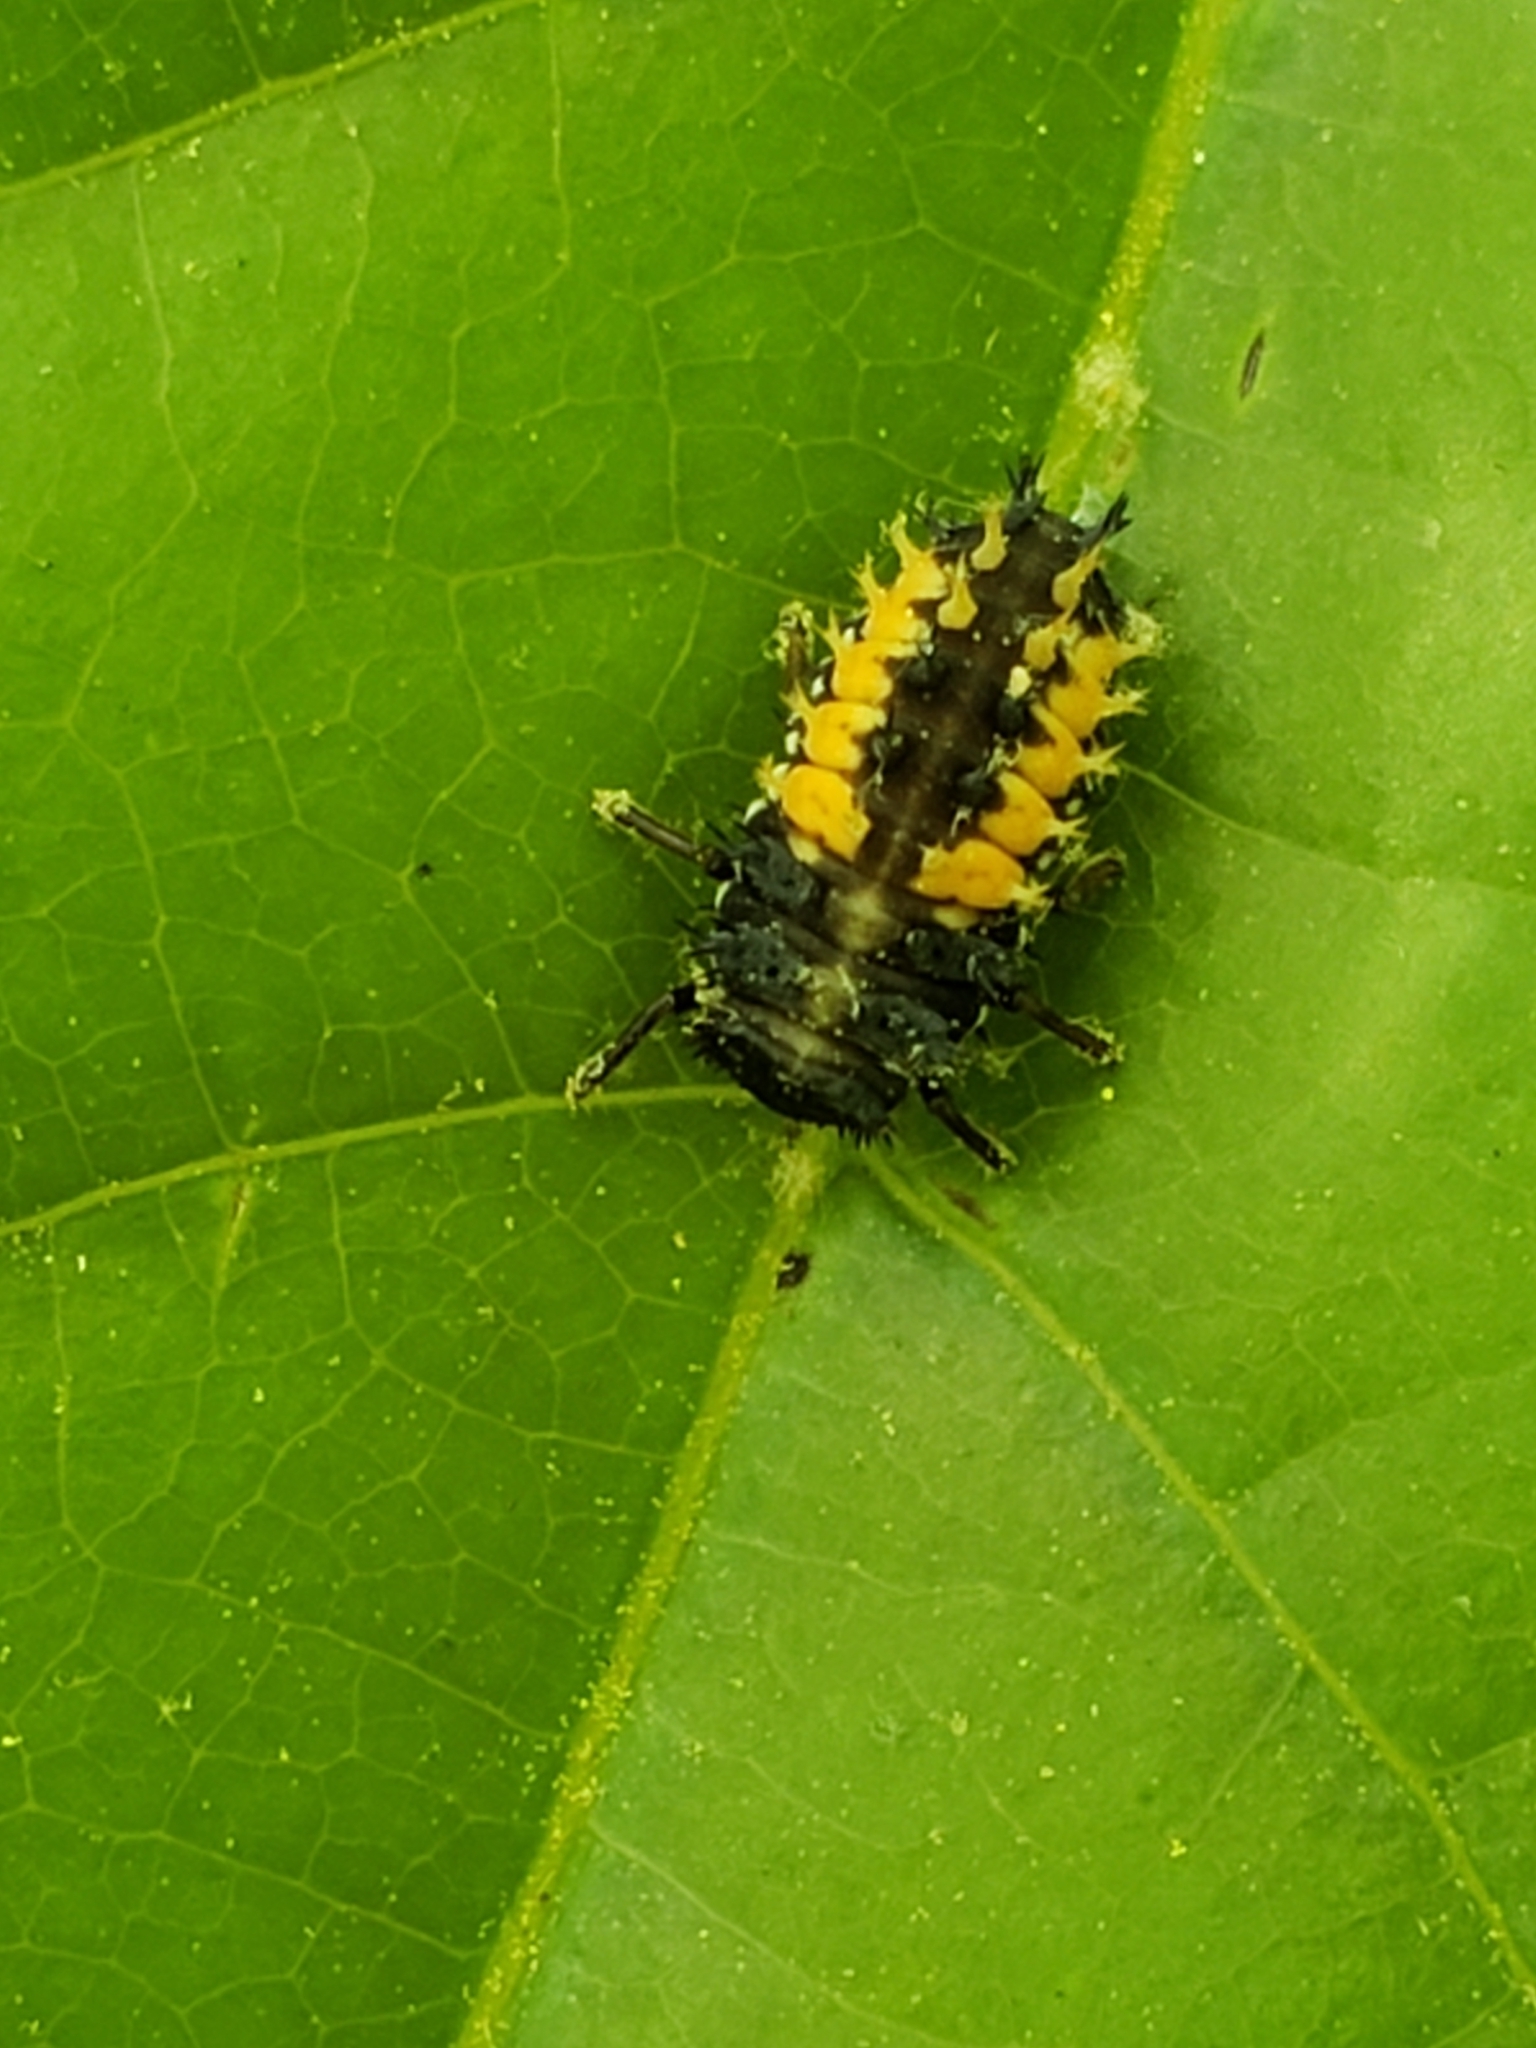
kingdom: Animalia
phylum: Arthropoda
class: Insecta
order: Coleoptera
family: Coccinellidae
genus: Harmonia
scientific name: Harmonia axyridis
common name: Harlequin ladybird
